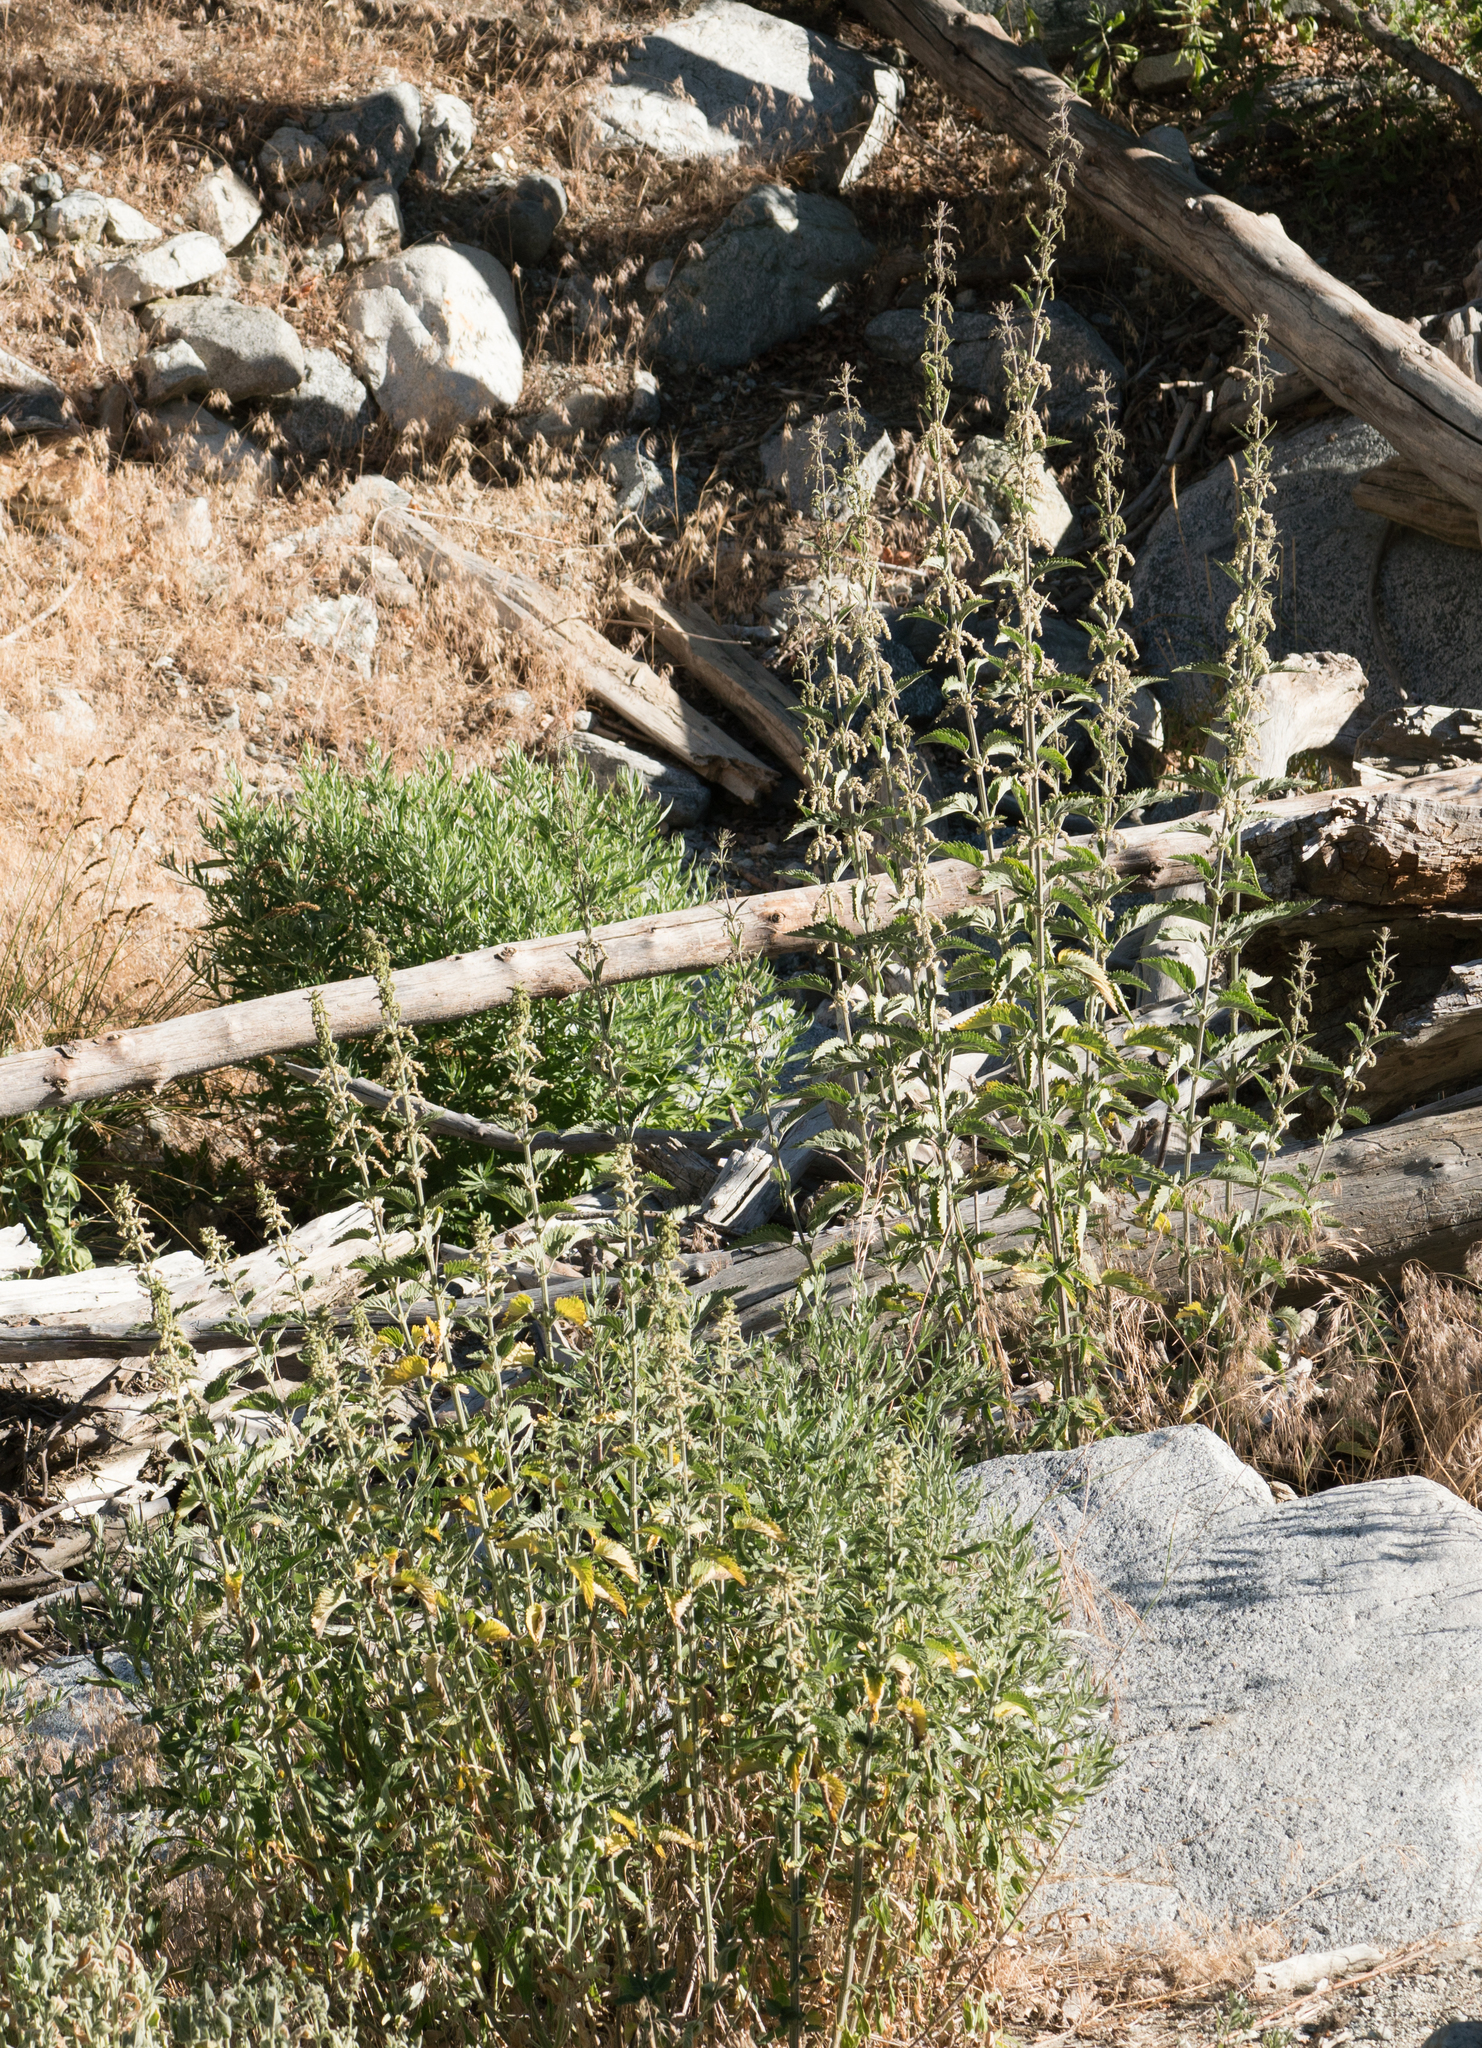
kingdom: Plantae
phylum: Tracheophyta
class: Magnoliopsida
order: Rosales
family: Urticaceae
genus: Urtica
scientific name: Urtica dioica
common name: Common nettle
